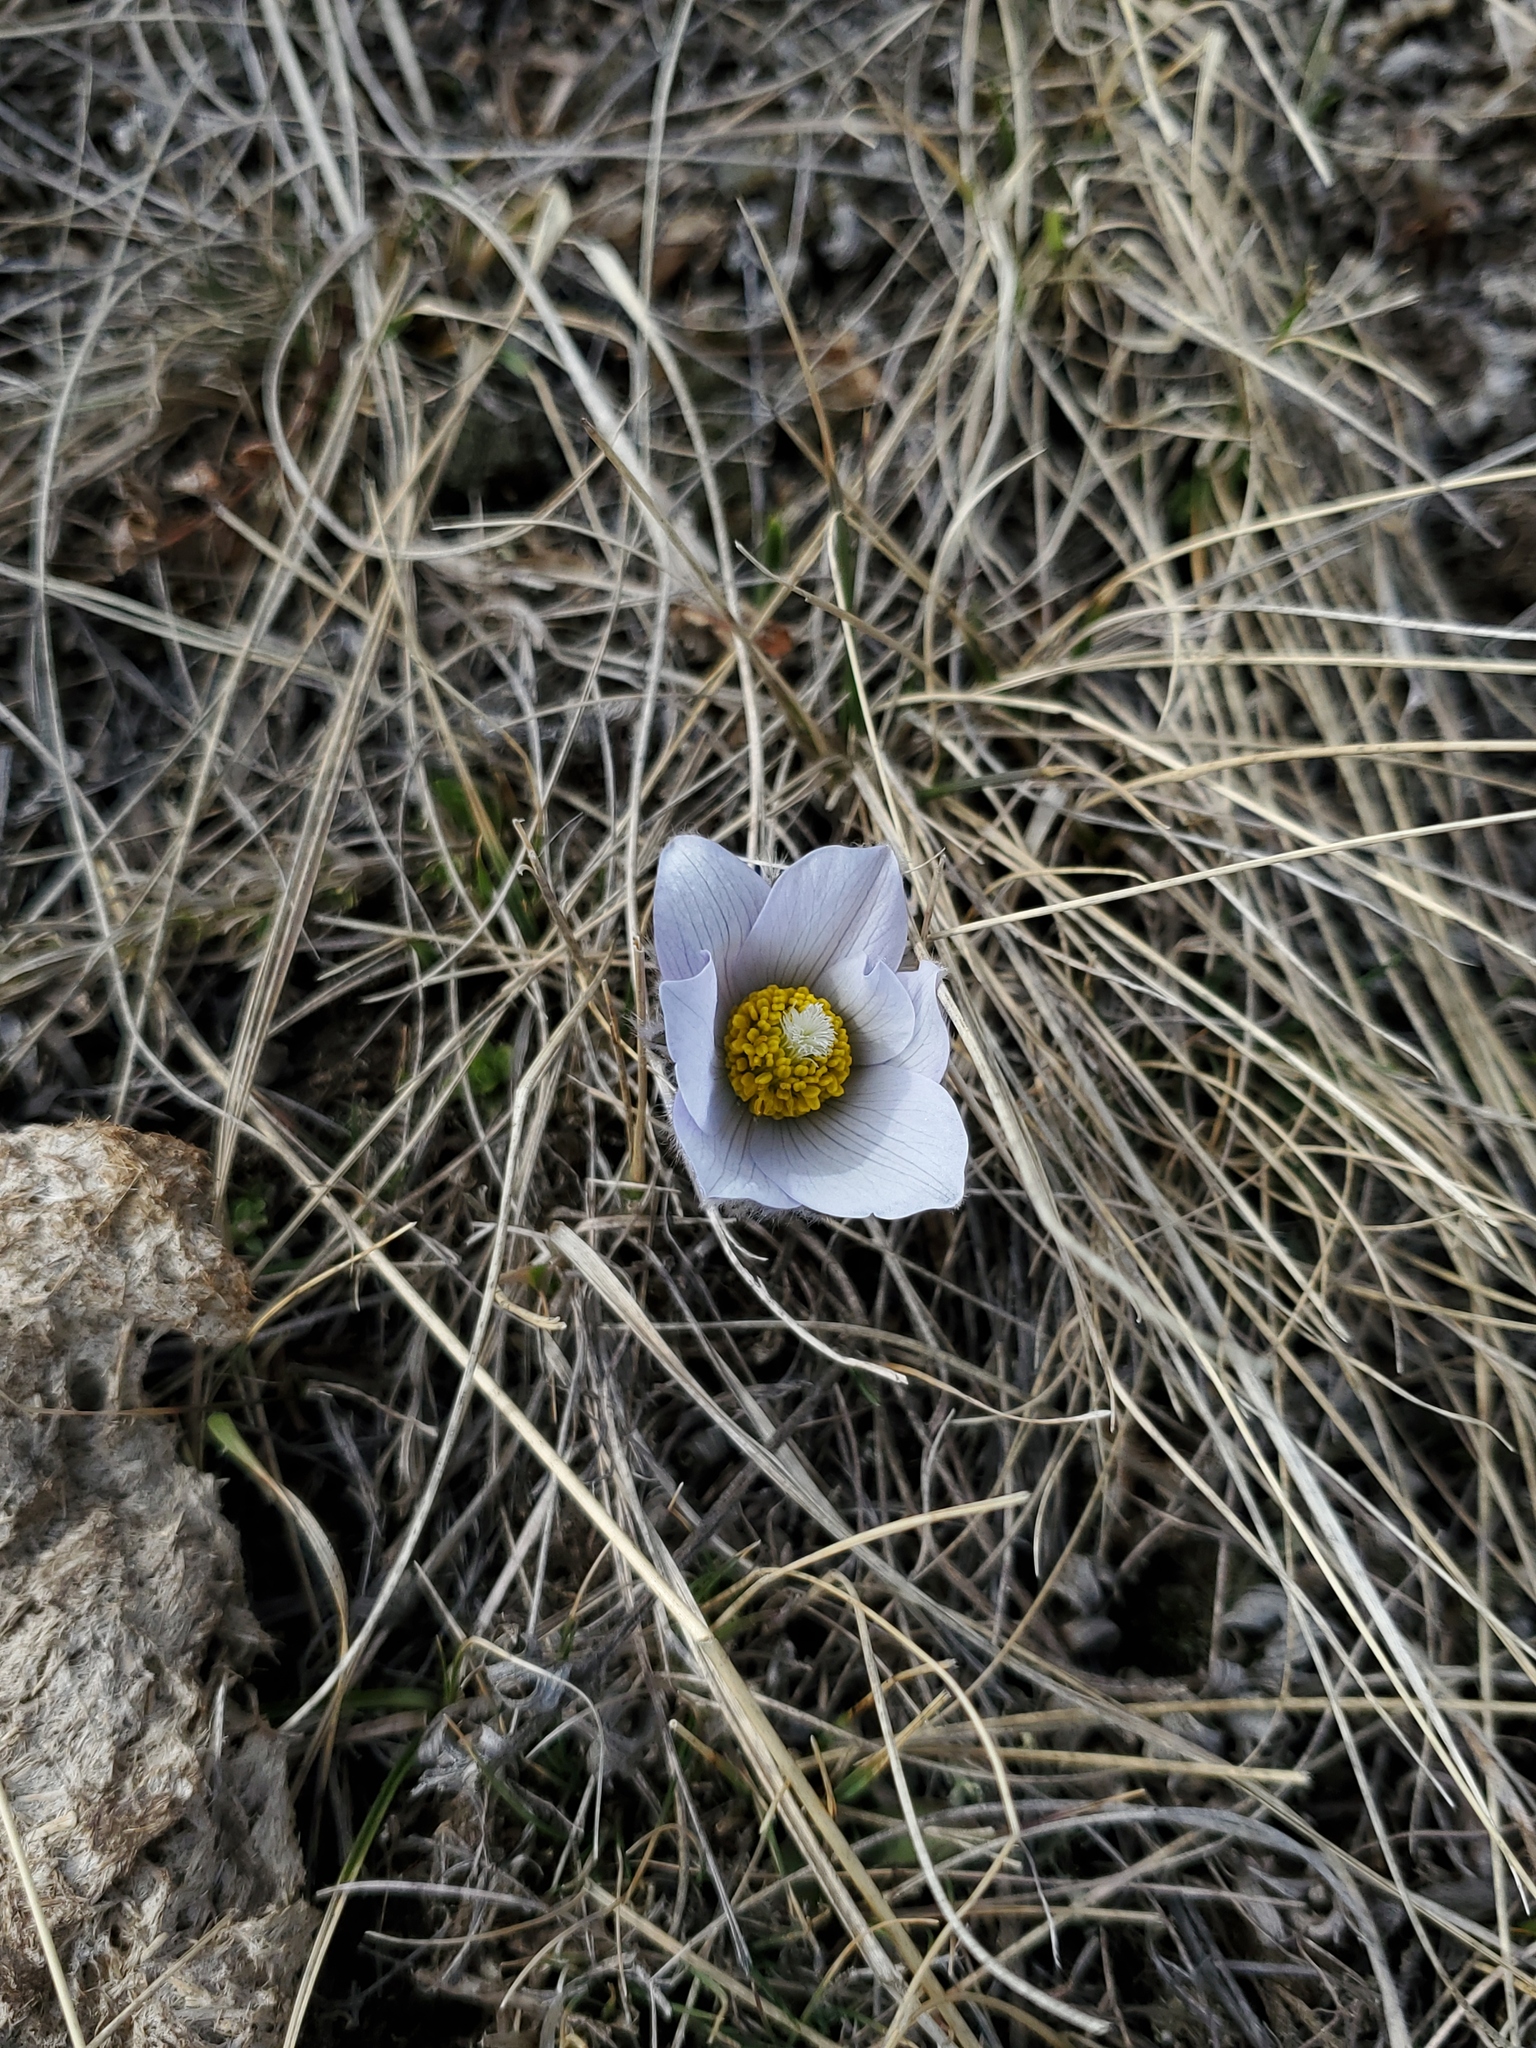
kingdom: Plantae
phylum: Tracheophyta
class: Magnoliopsida
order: Ranunculales
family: Ranunculaceae
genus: Pulsatilla
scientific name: Pulsatilla nuttalliana
